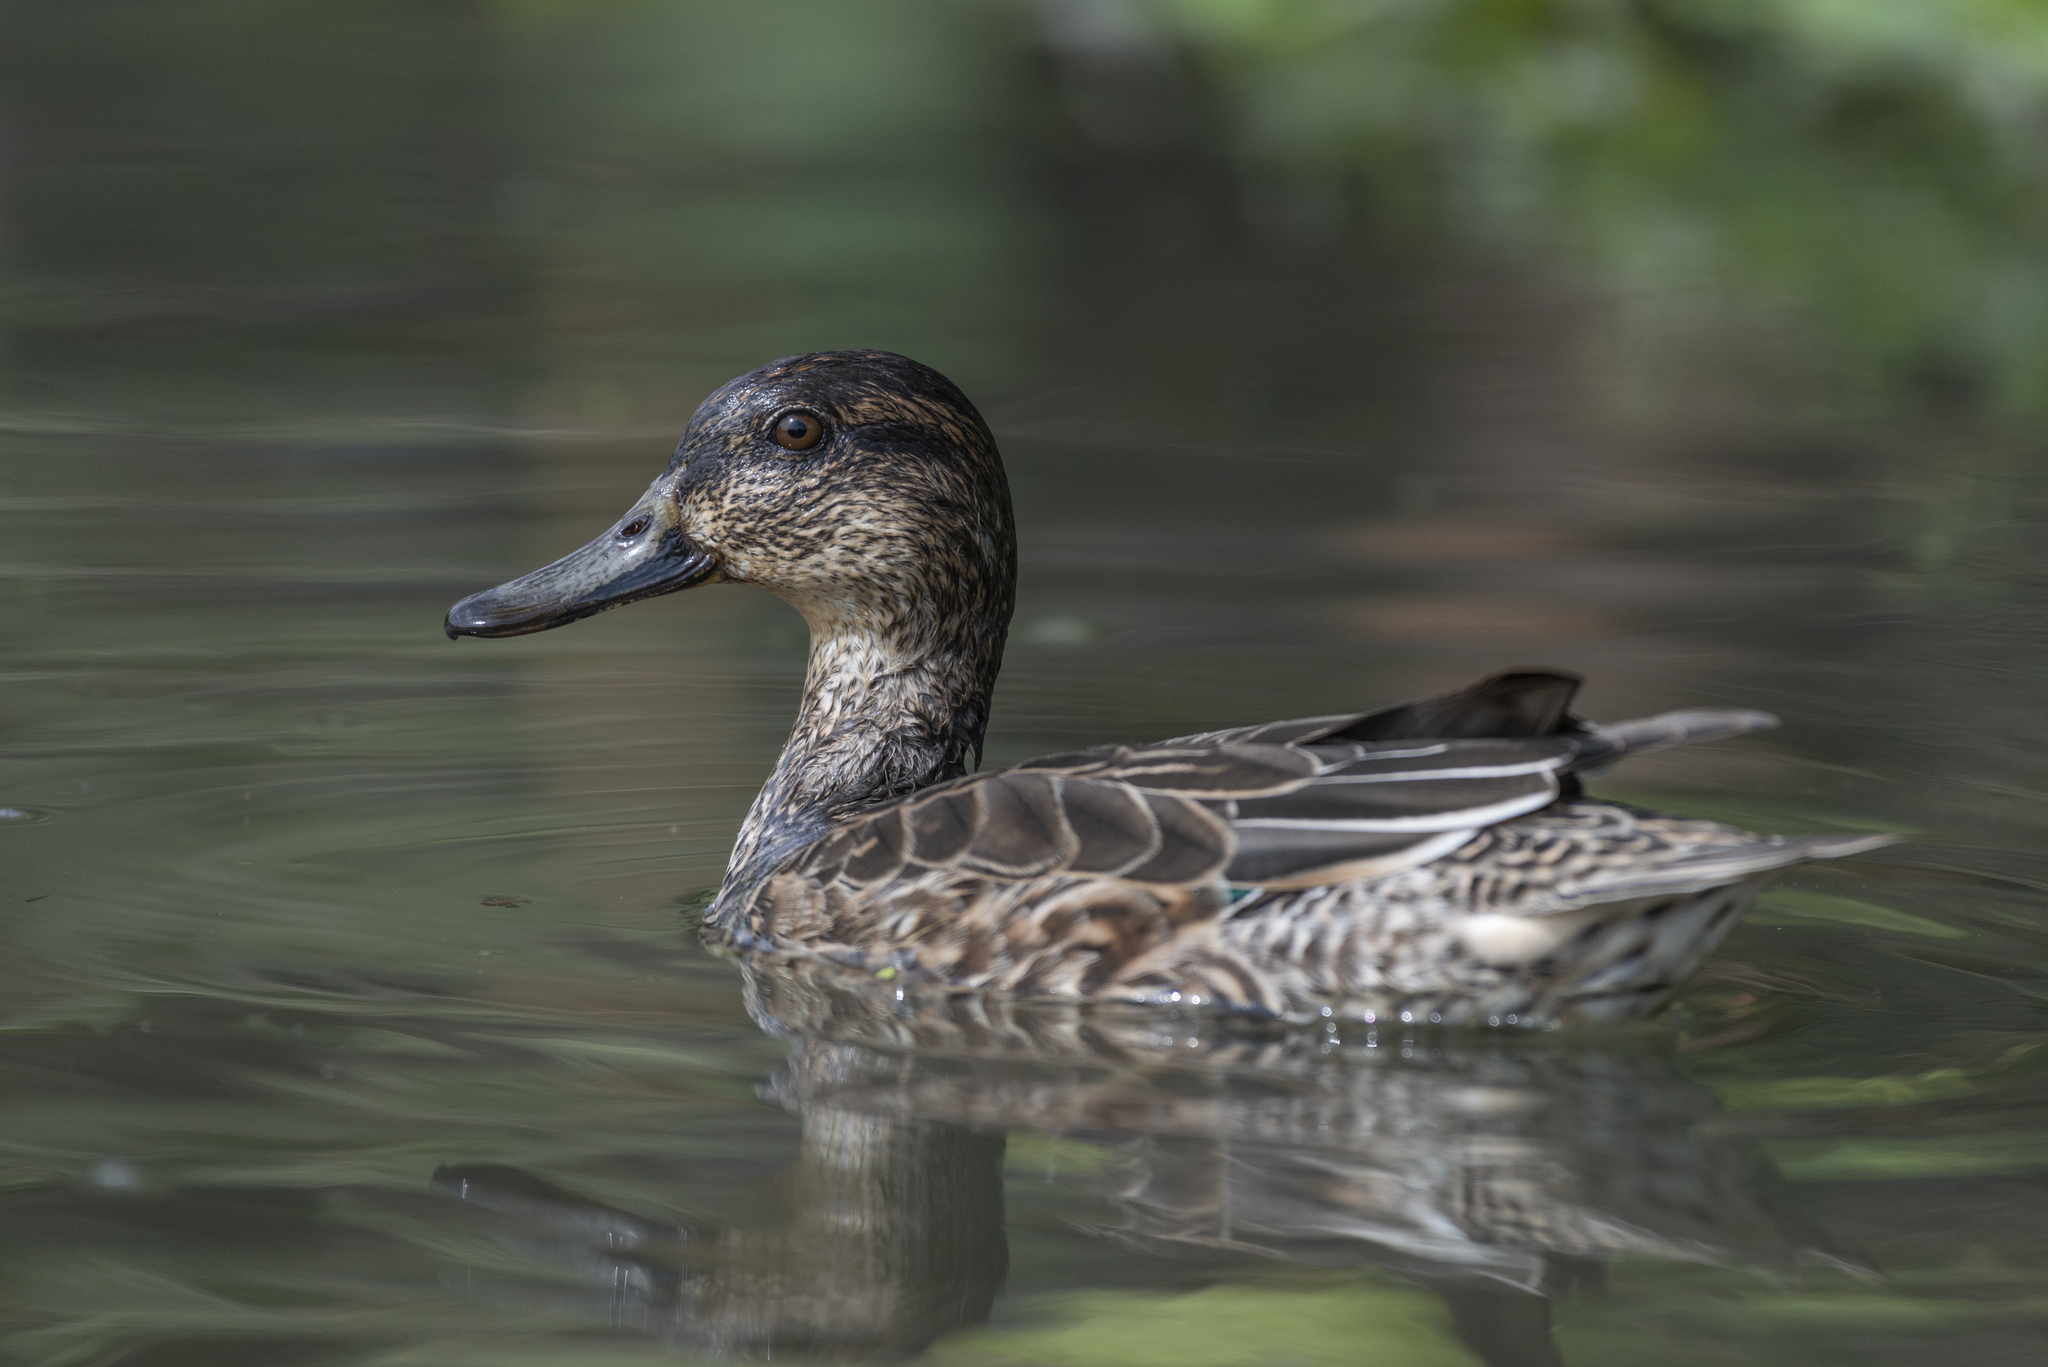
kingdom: Animalia
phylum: Chordata
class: Aves
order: Anseriformes
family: Anatidae
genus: Anas
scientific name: Anas crecca
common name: Eurasian teal
